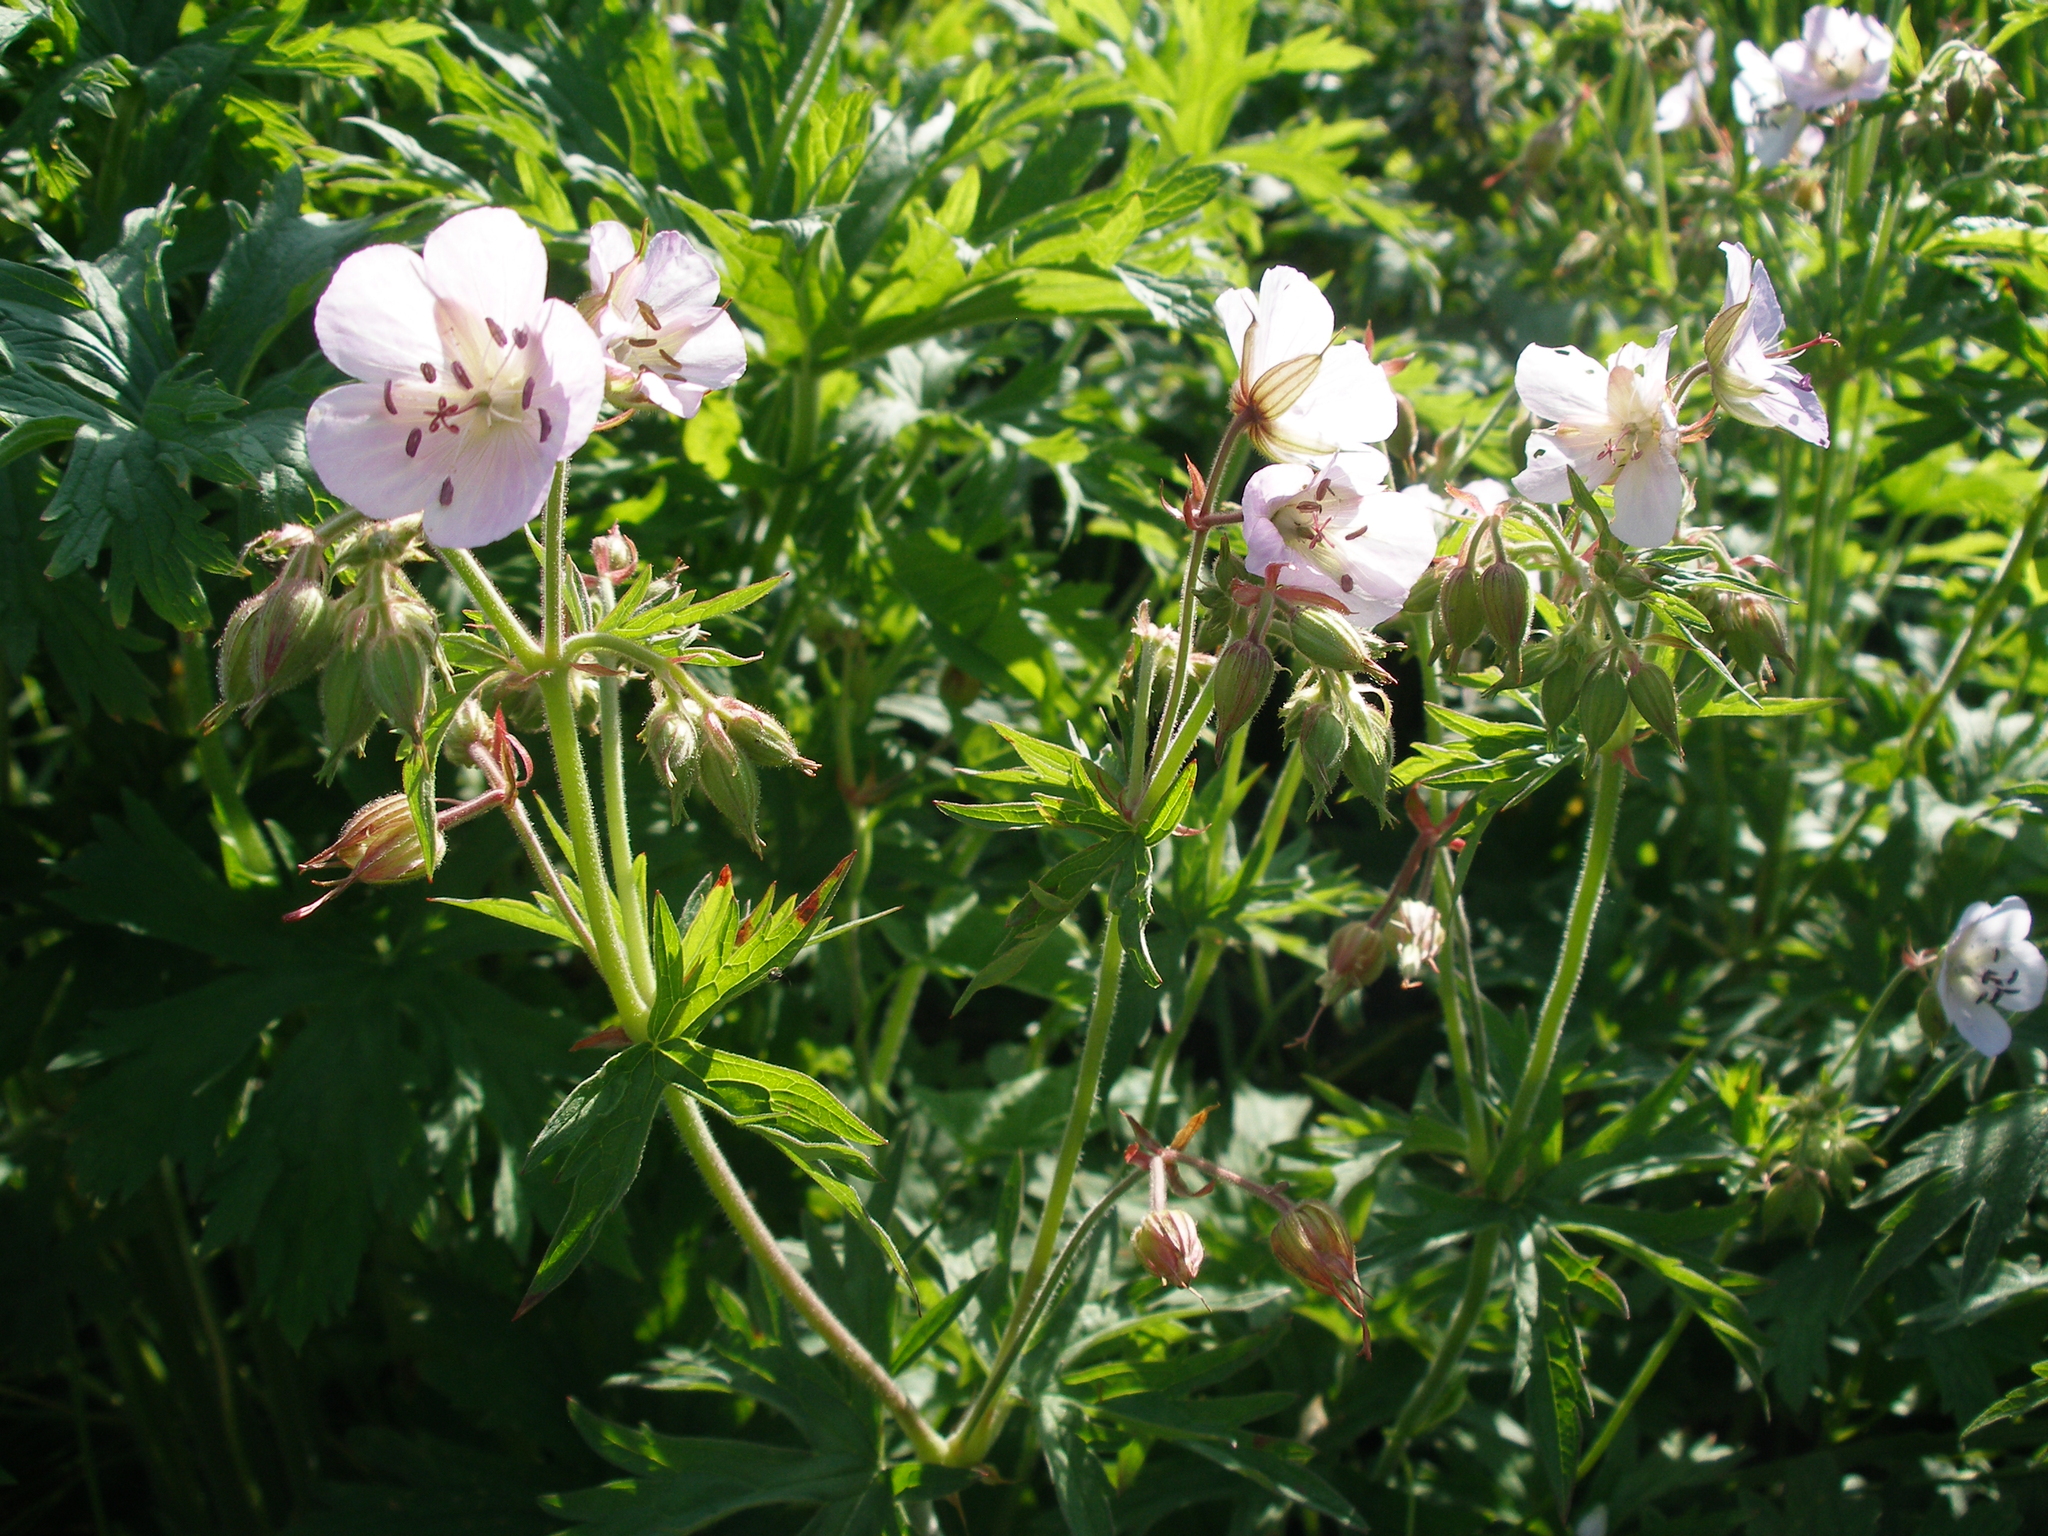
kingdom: Plantae
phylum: Tracheophyta
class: Magnoliopsida
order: Geraniales
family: Geraniaceae
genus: Geranium
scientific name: Geranium pratense
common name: Meadow crane's-bill
